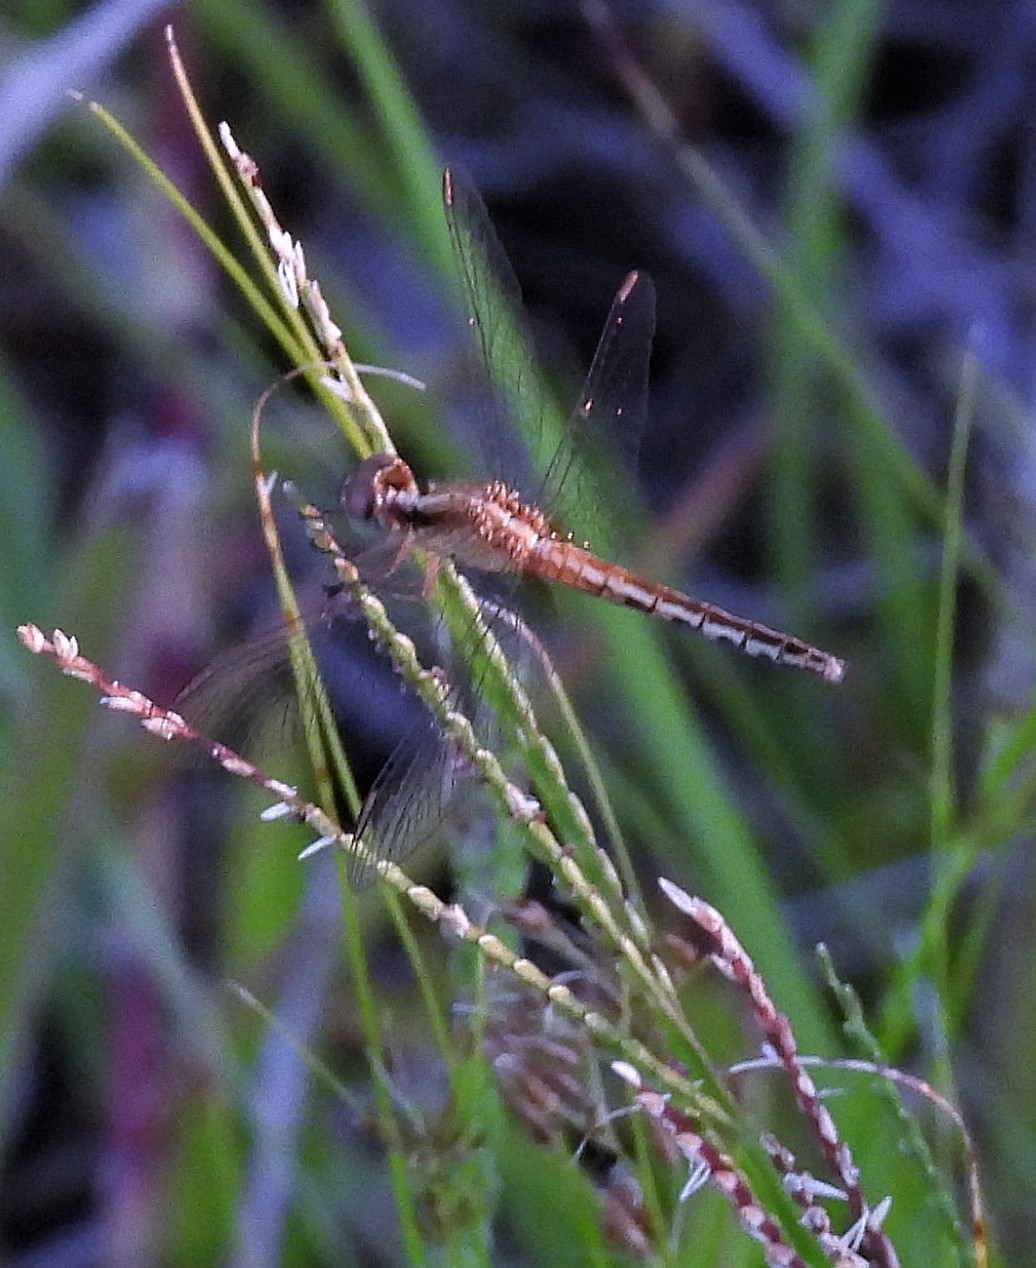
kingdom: Animalia
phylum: Arthropoda
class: Insecta
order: Odonata
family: Libellulidae
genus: Erythrodiplax
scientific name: Erythrodiplax paraguayensis
